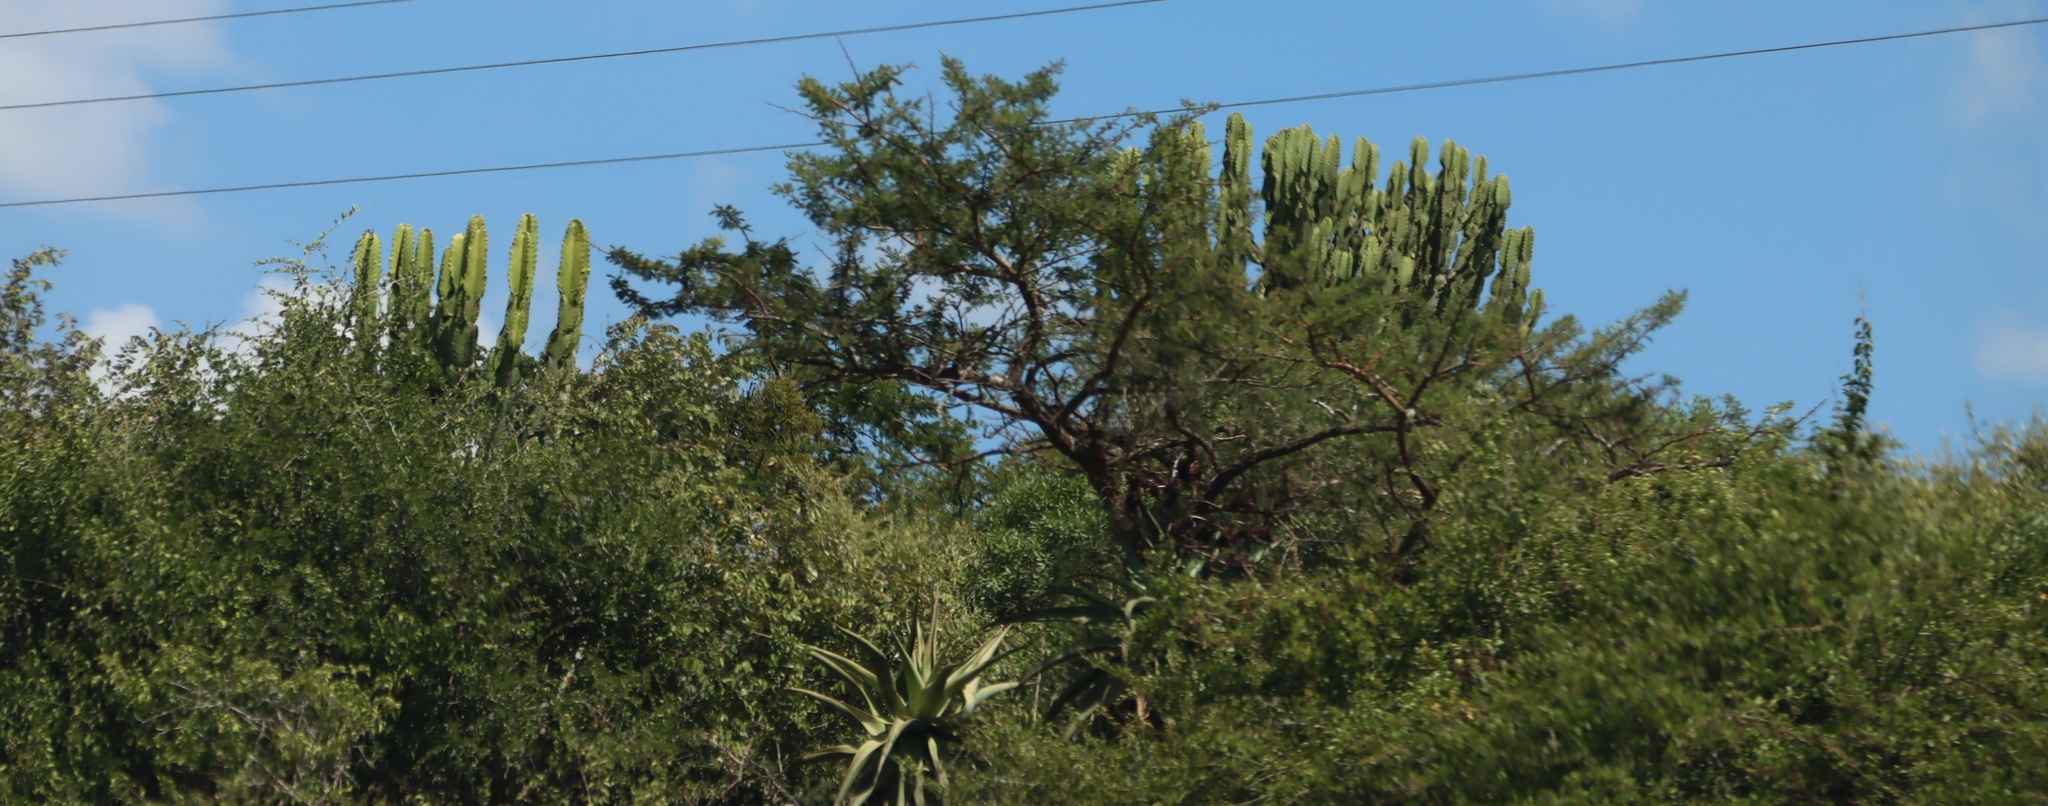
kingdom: Plantae
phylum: Tracheophyta
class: Magnoliopsida
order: Malpighiales
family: Euphorbiaceae
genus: Euphorbia
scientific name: Euphorbia ingens
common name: Cactus spurge
